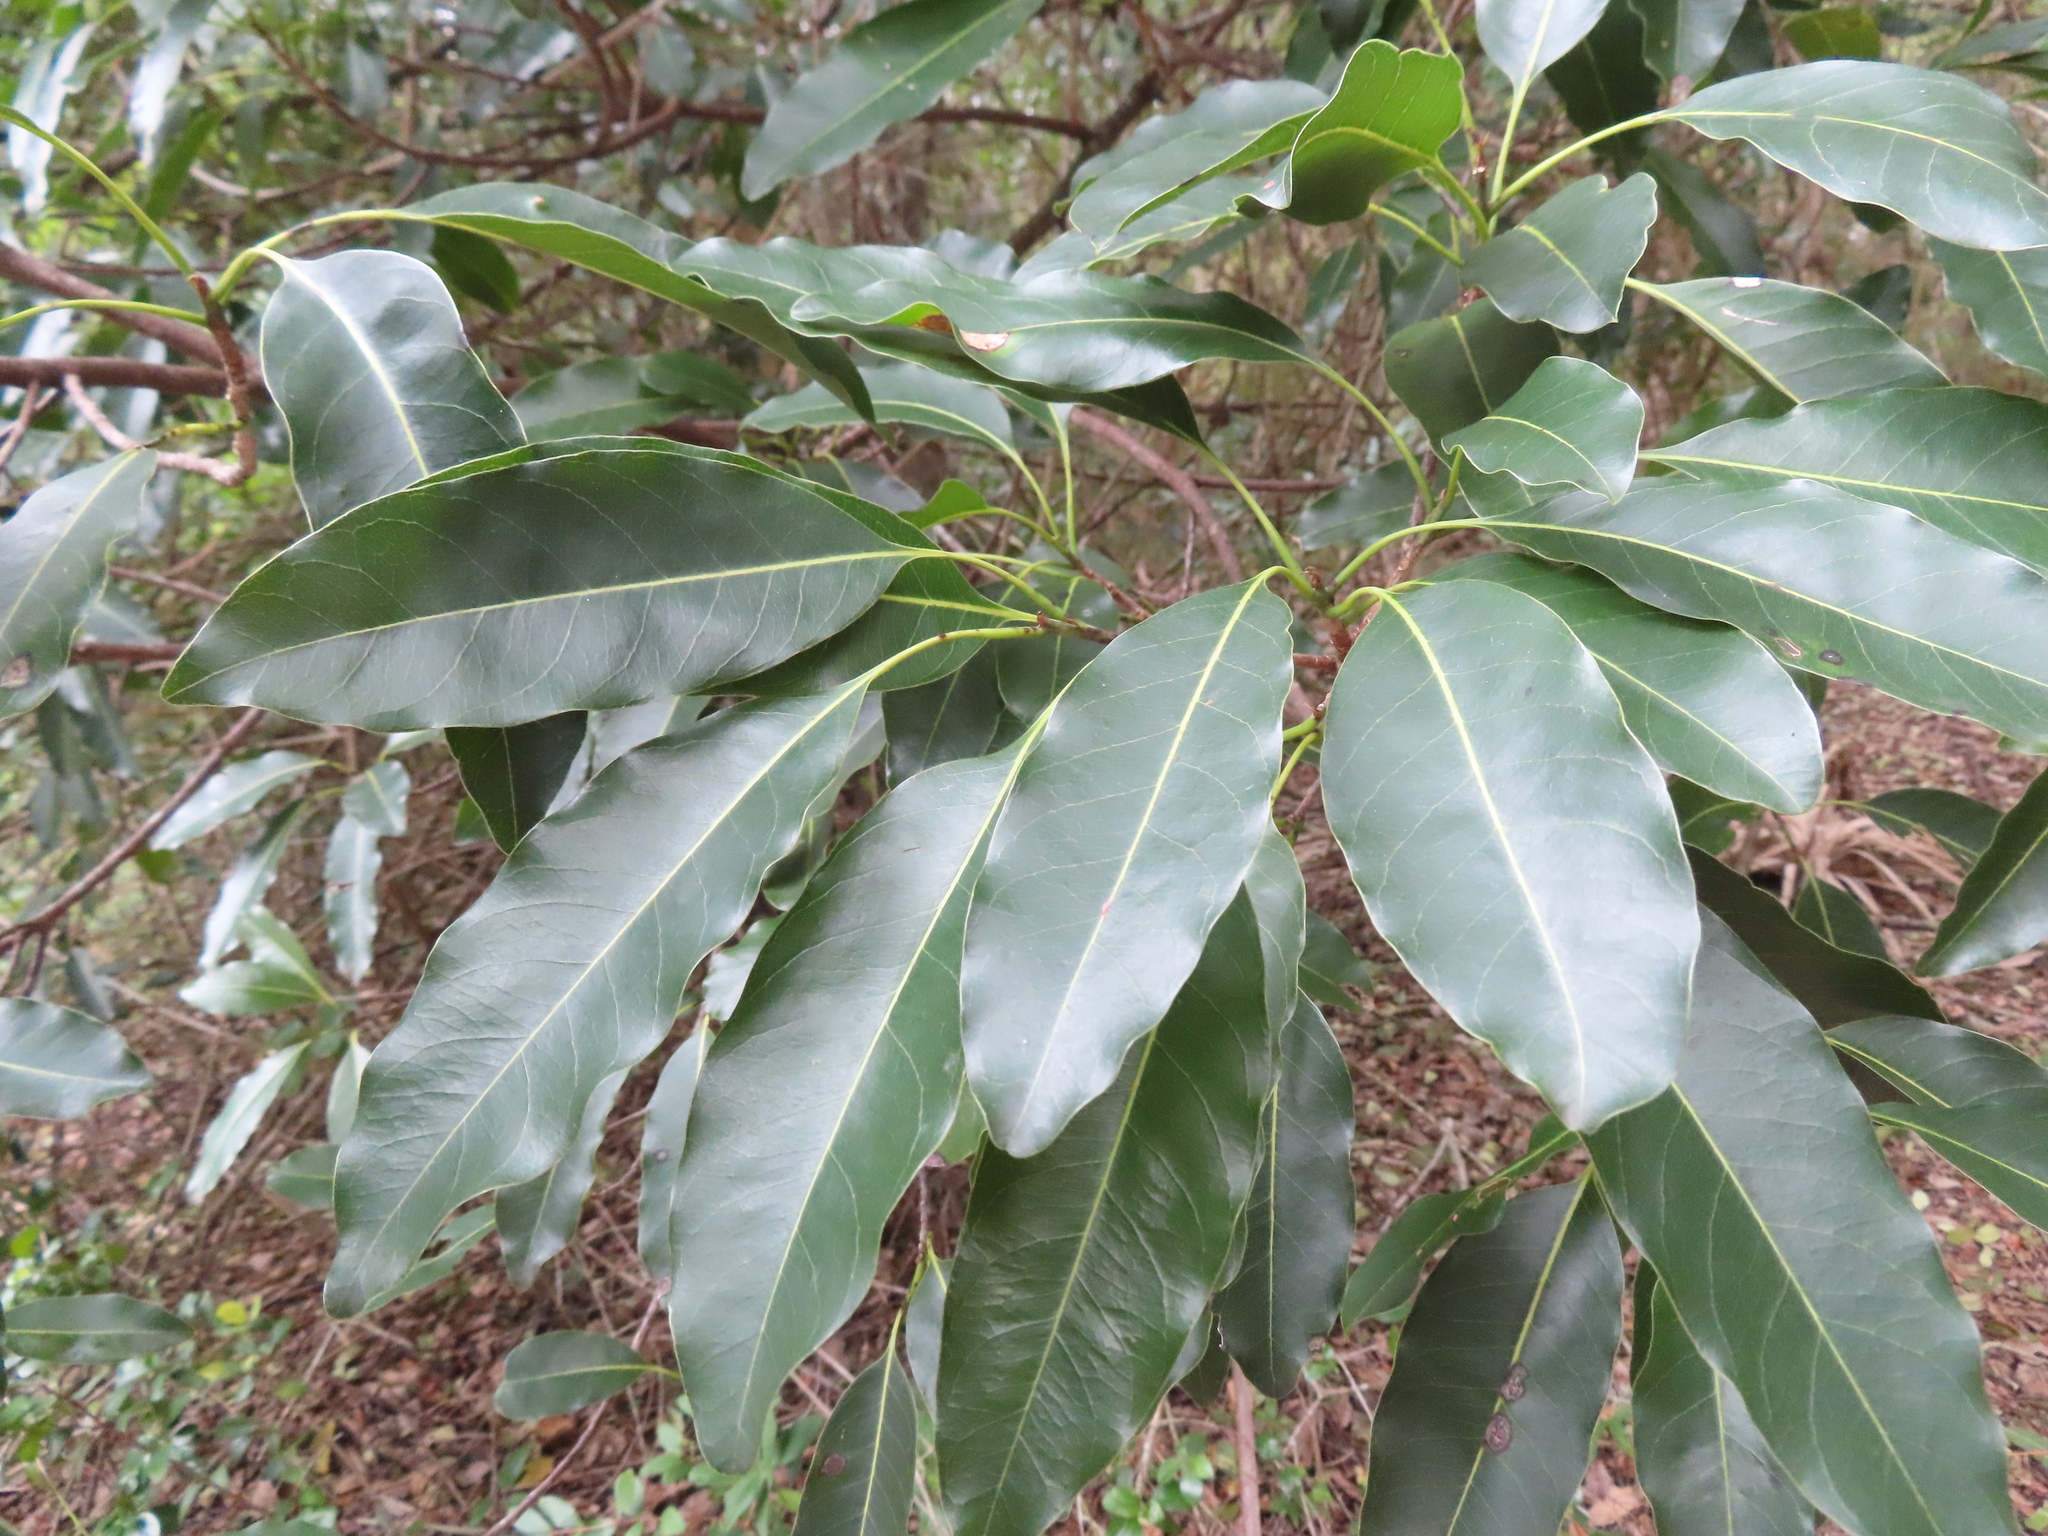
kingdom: Plantae
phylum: Tracheophyta
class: Magnoliopsida
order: Ericales
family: Sapotaceae
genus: Sideroxylon
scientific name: Sideroxylon foetidissimum
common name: Barbados-mastic
